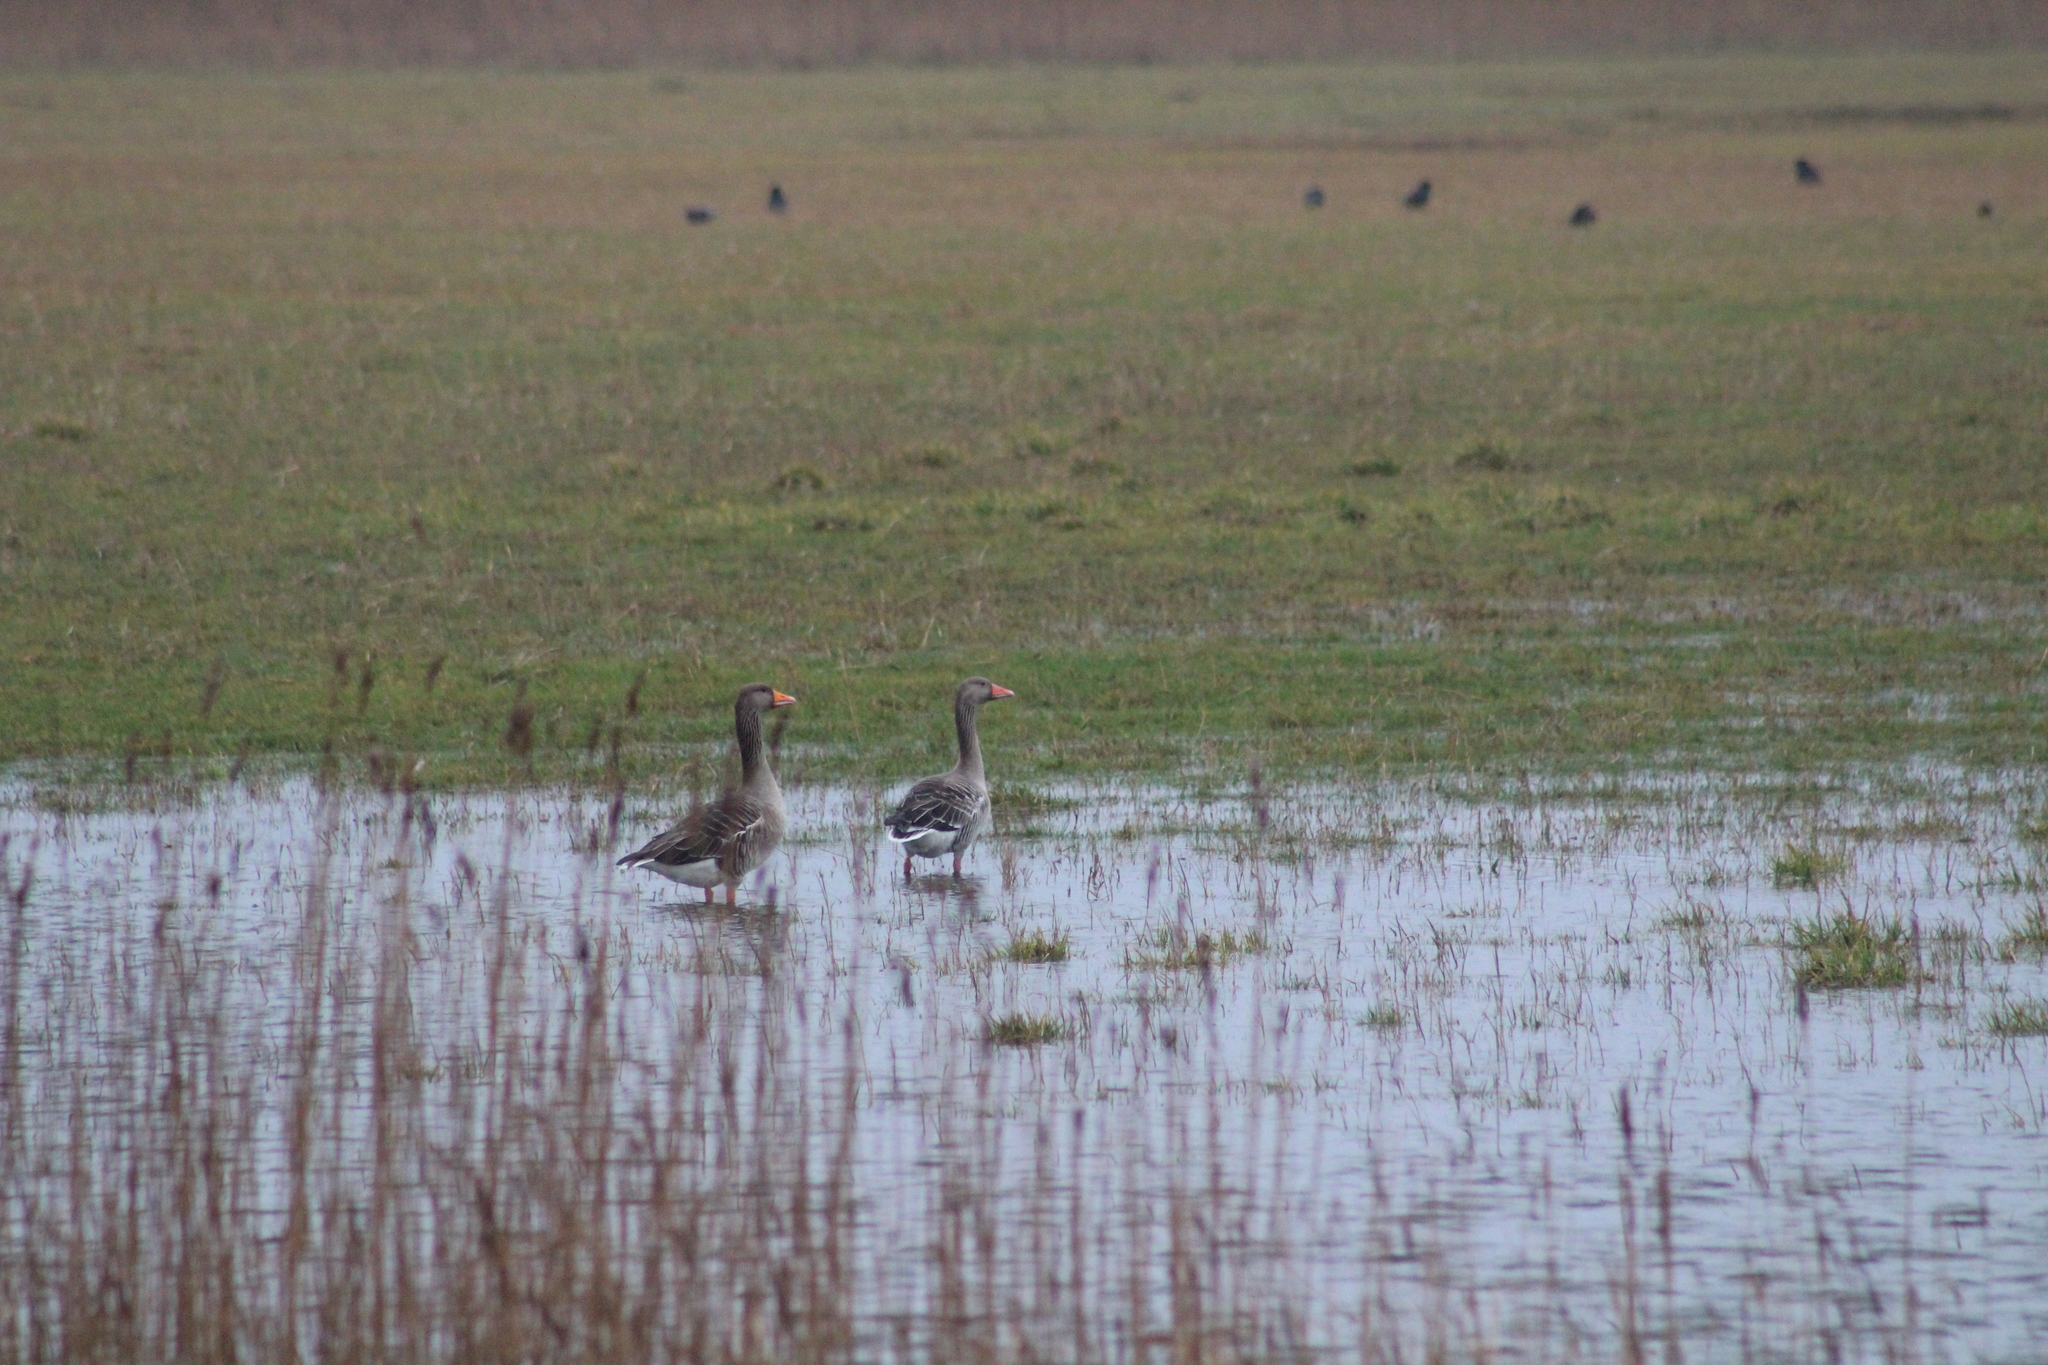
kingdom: Animalia
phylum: Chordata
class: Aves
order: Anseriformes
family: Anatidae
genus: Anser
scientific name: Anser anser
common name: Greylag goose
